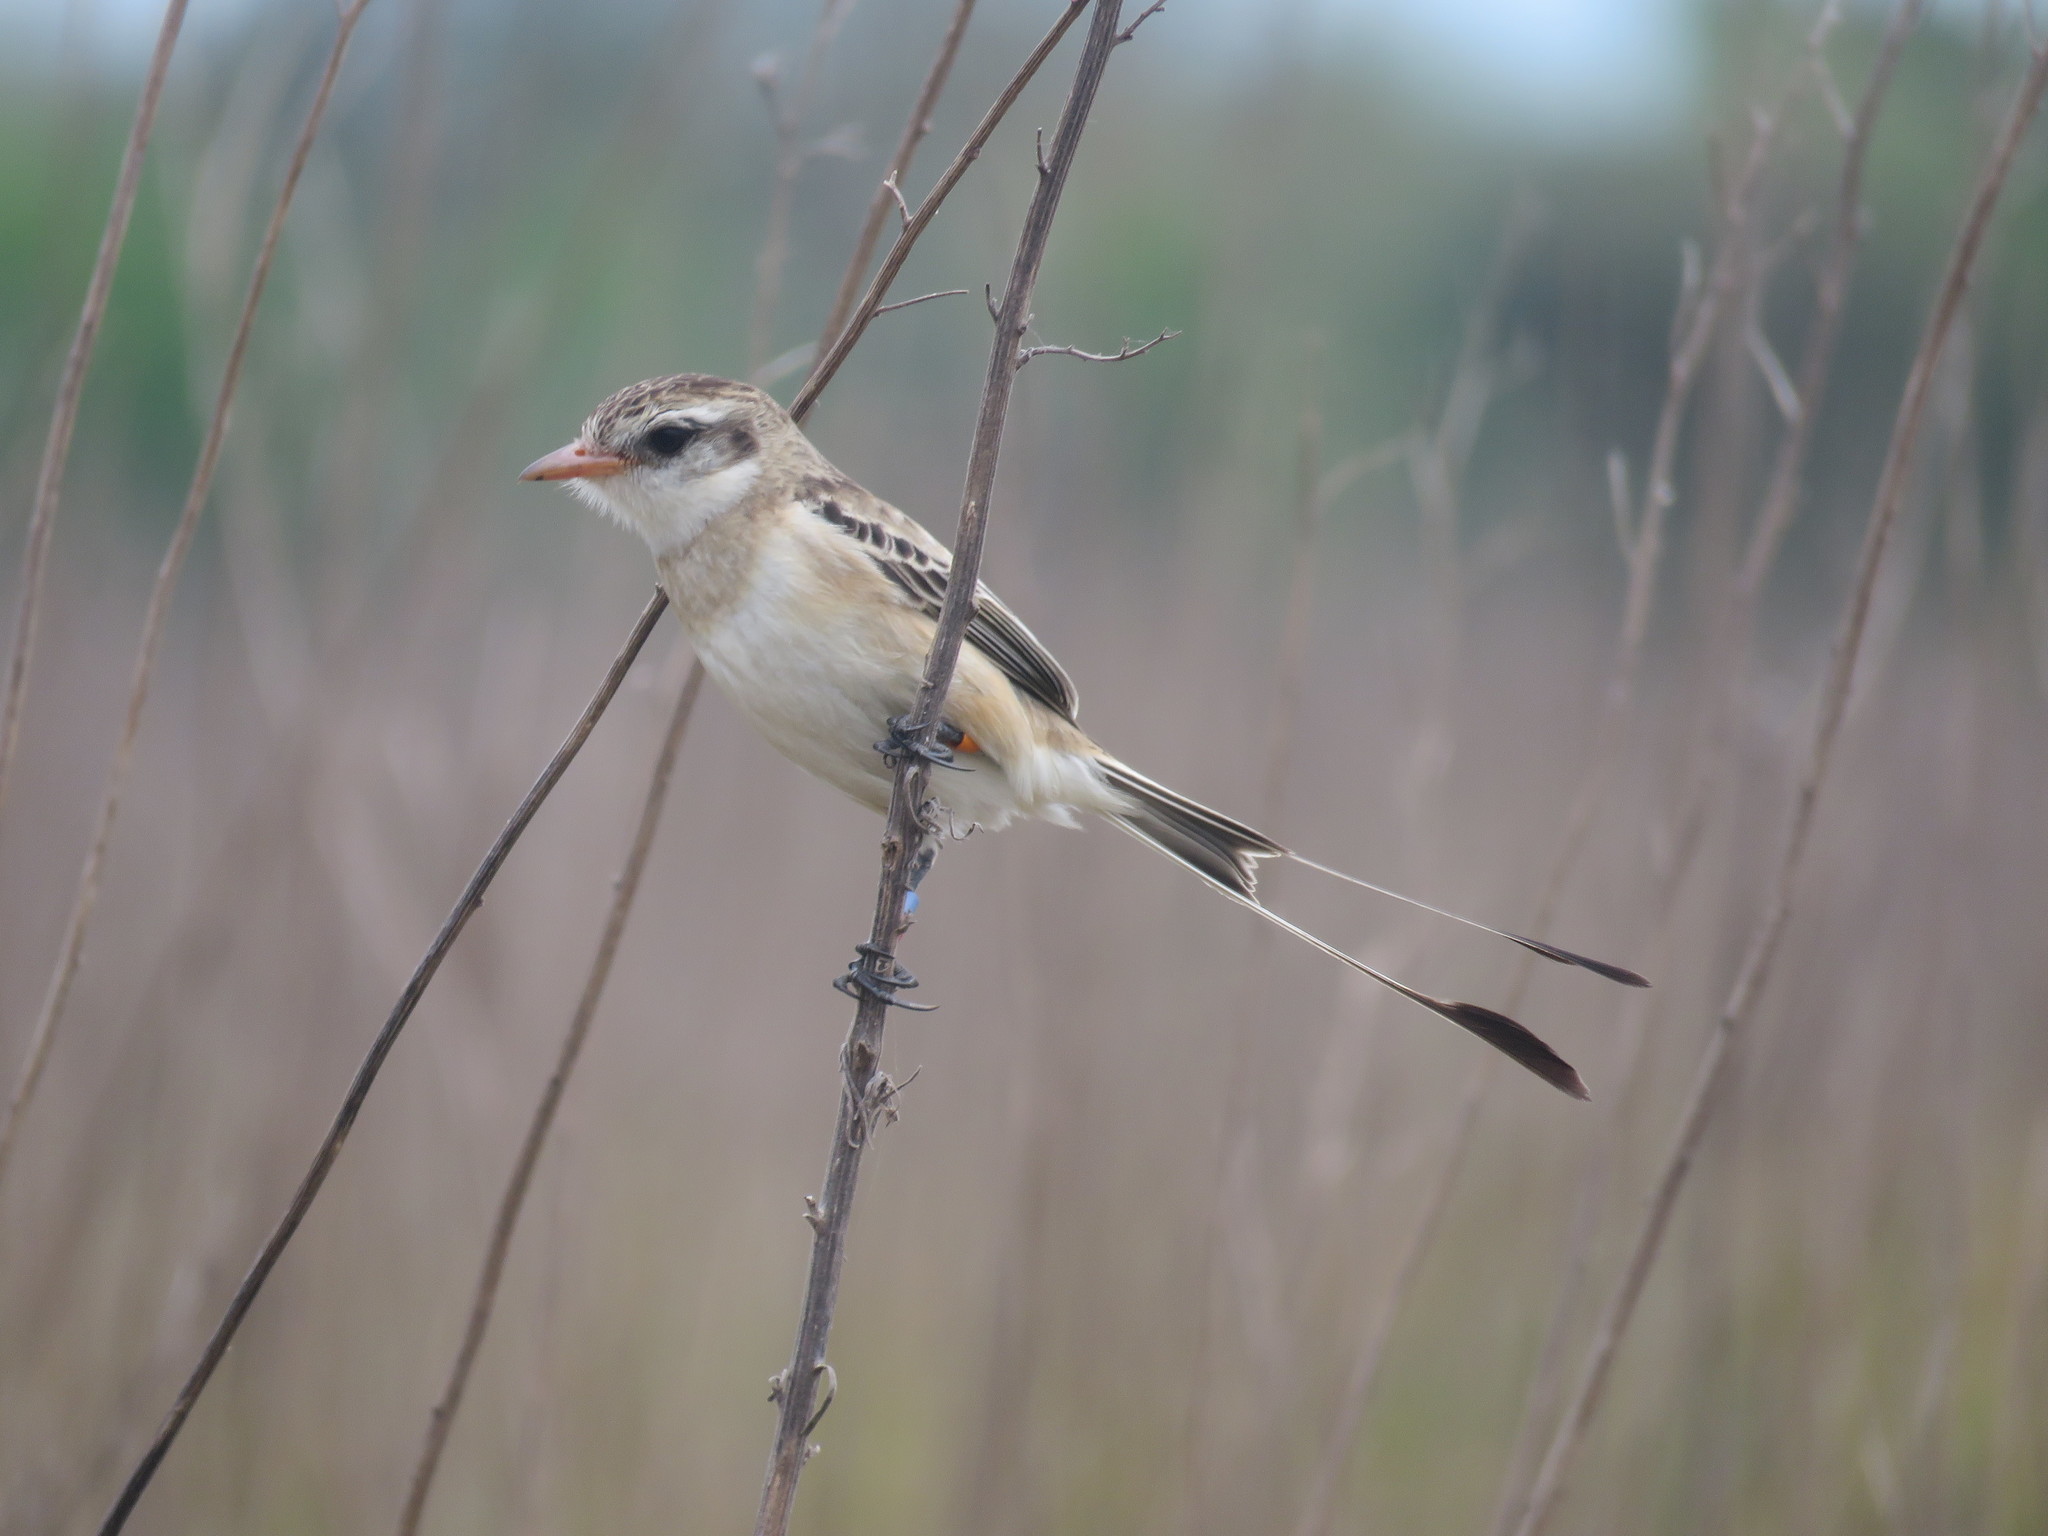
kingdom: Animalia
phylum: Chordata
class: Aves
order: Passeriformes
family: Tyrannidae
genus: Alectrurus
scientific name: Alectrurus risora
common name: Strange-tailed tyrant
